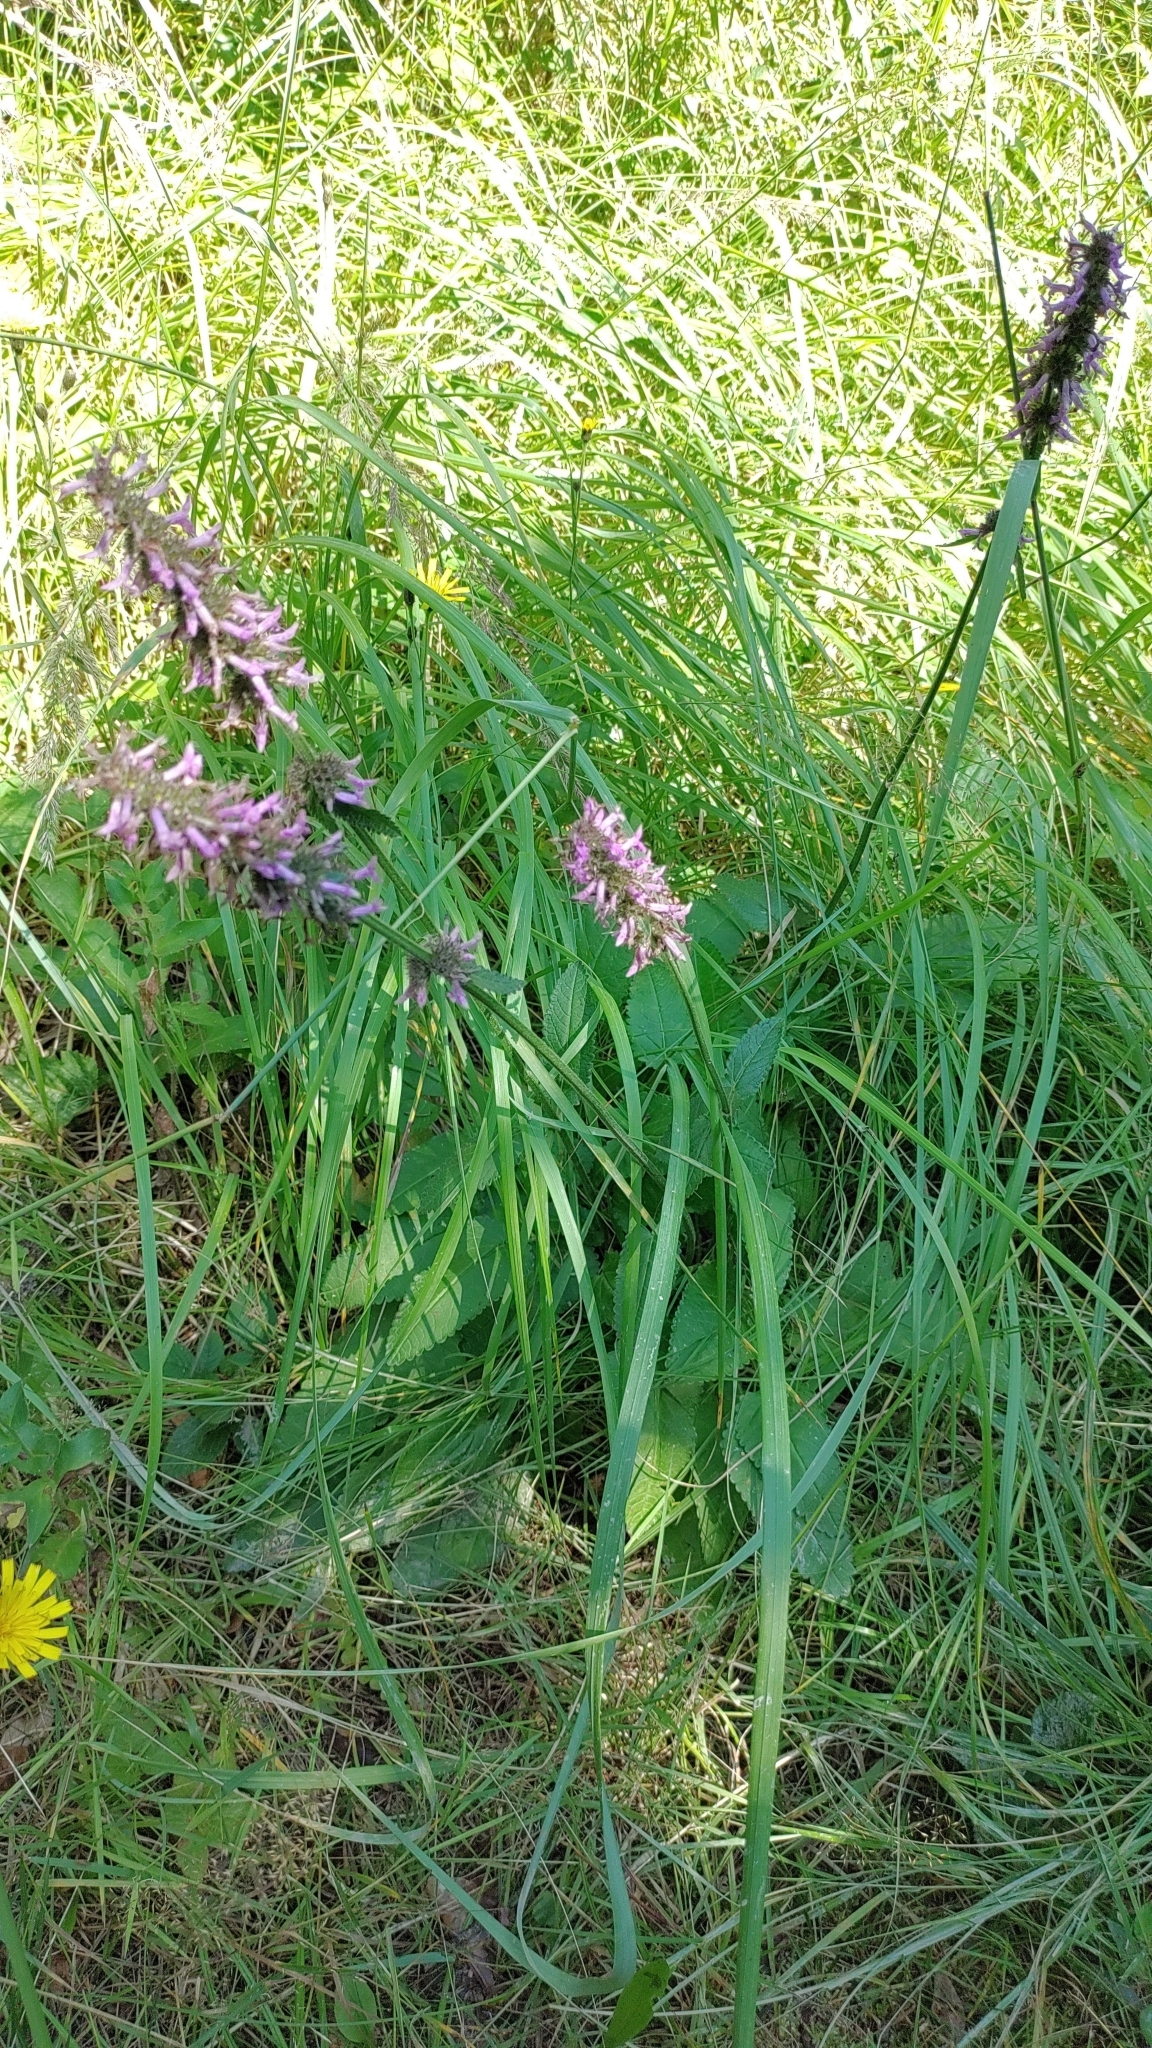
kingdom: Plantae
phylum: Tracheophyta
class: Magnoliopsida
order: Lamiales
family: Lamiaceae
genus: Betonica
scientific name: Betonica officinalis
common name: Bishop's-wort
